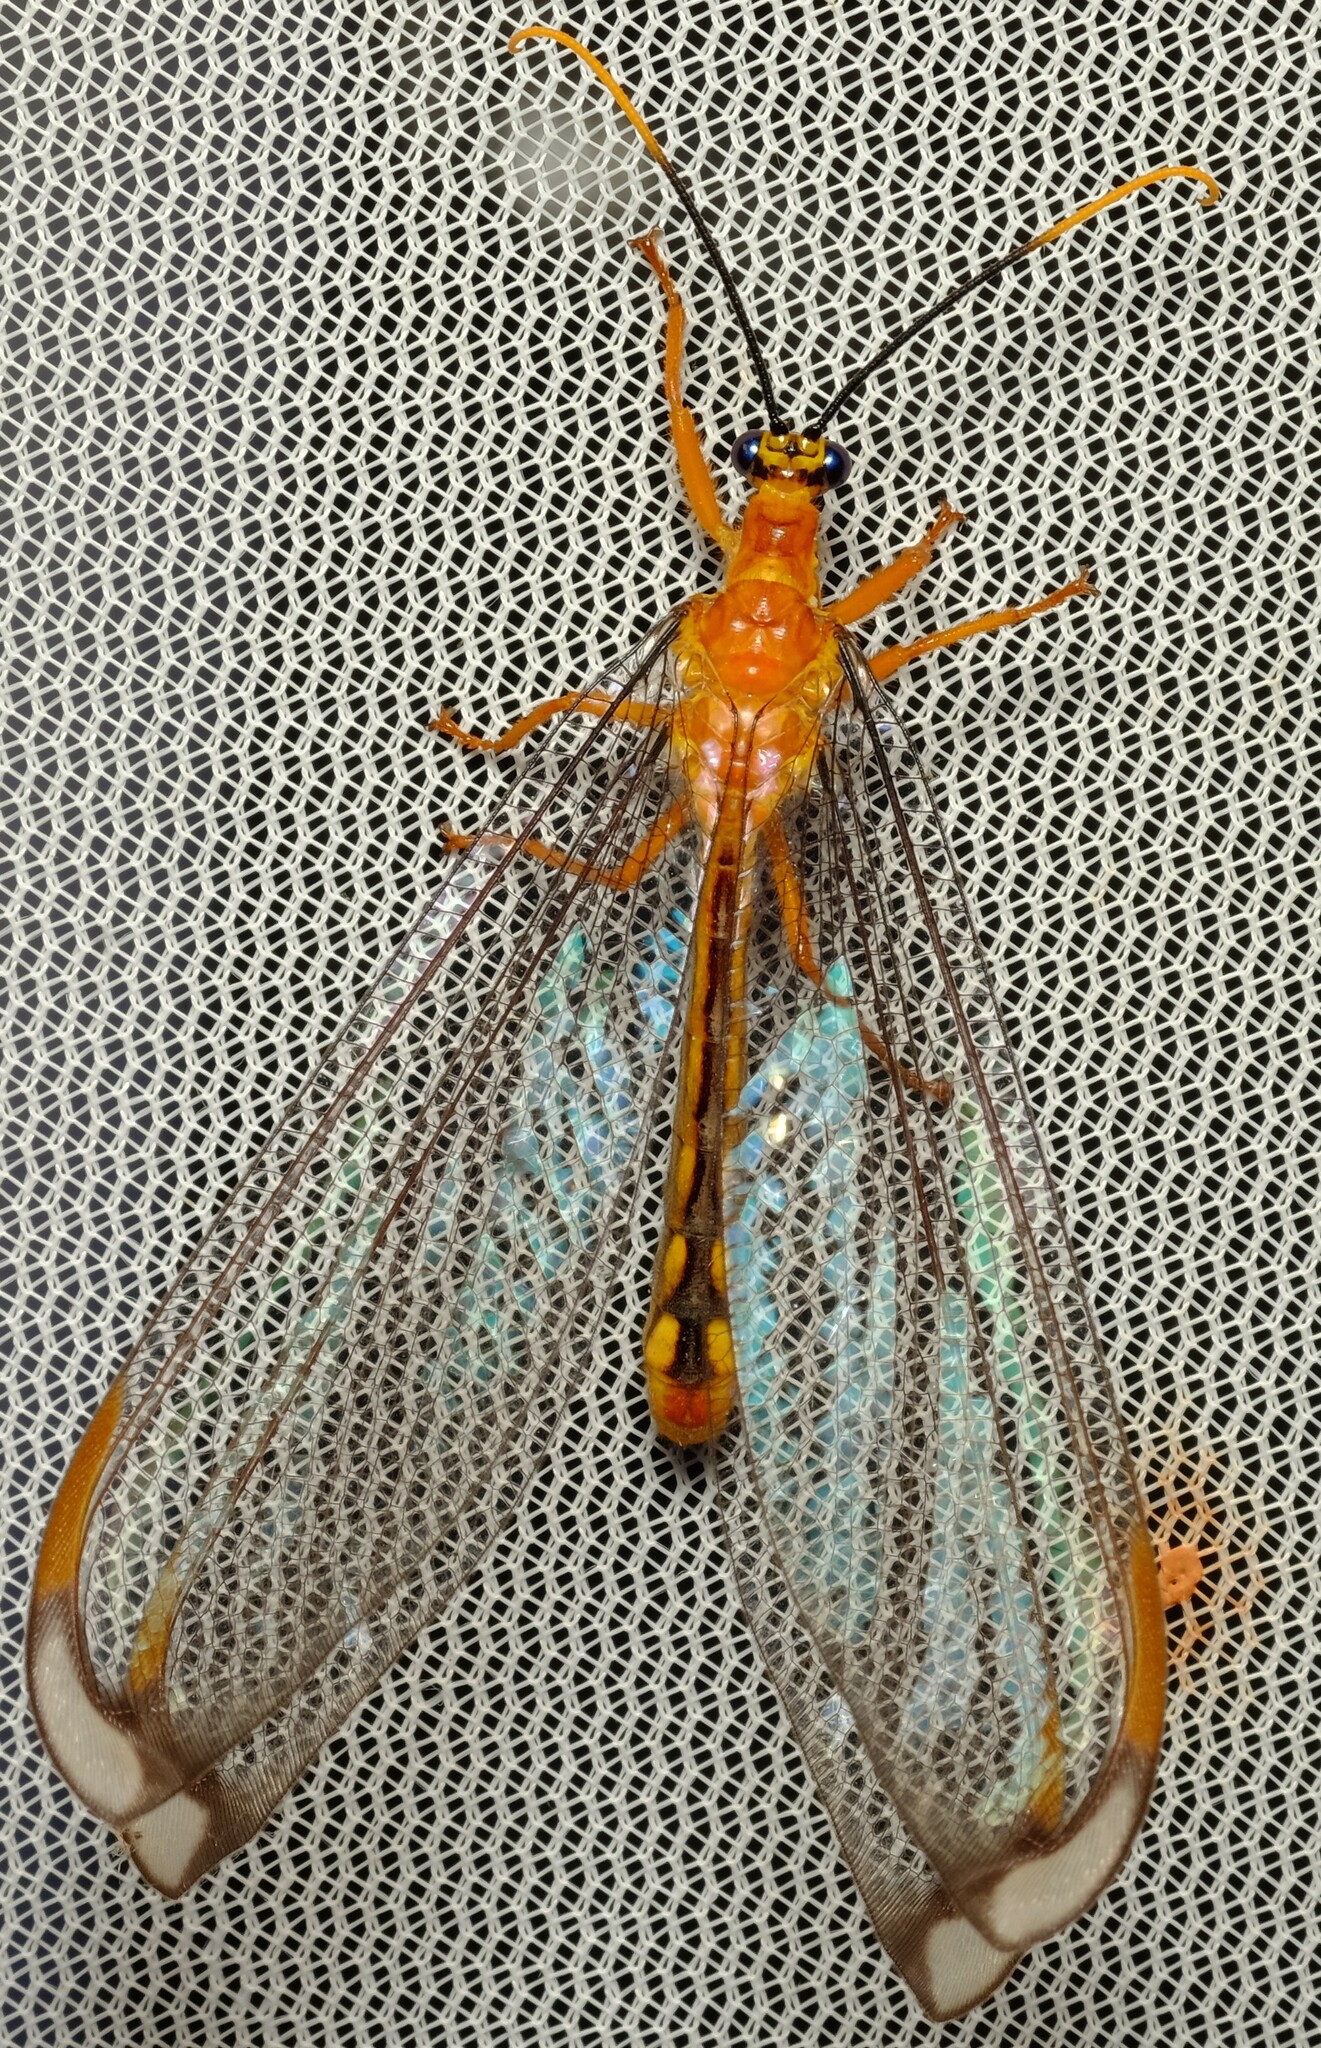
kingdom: Animalia
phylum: Arthropoda
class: Insecta
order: Neuroptera
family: Nymphidae
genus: Nymphes
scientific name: Nymphes myrmeleonoides
